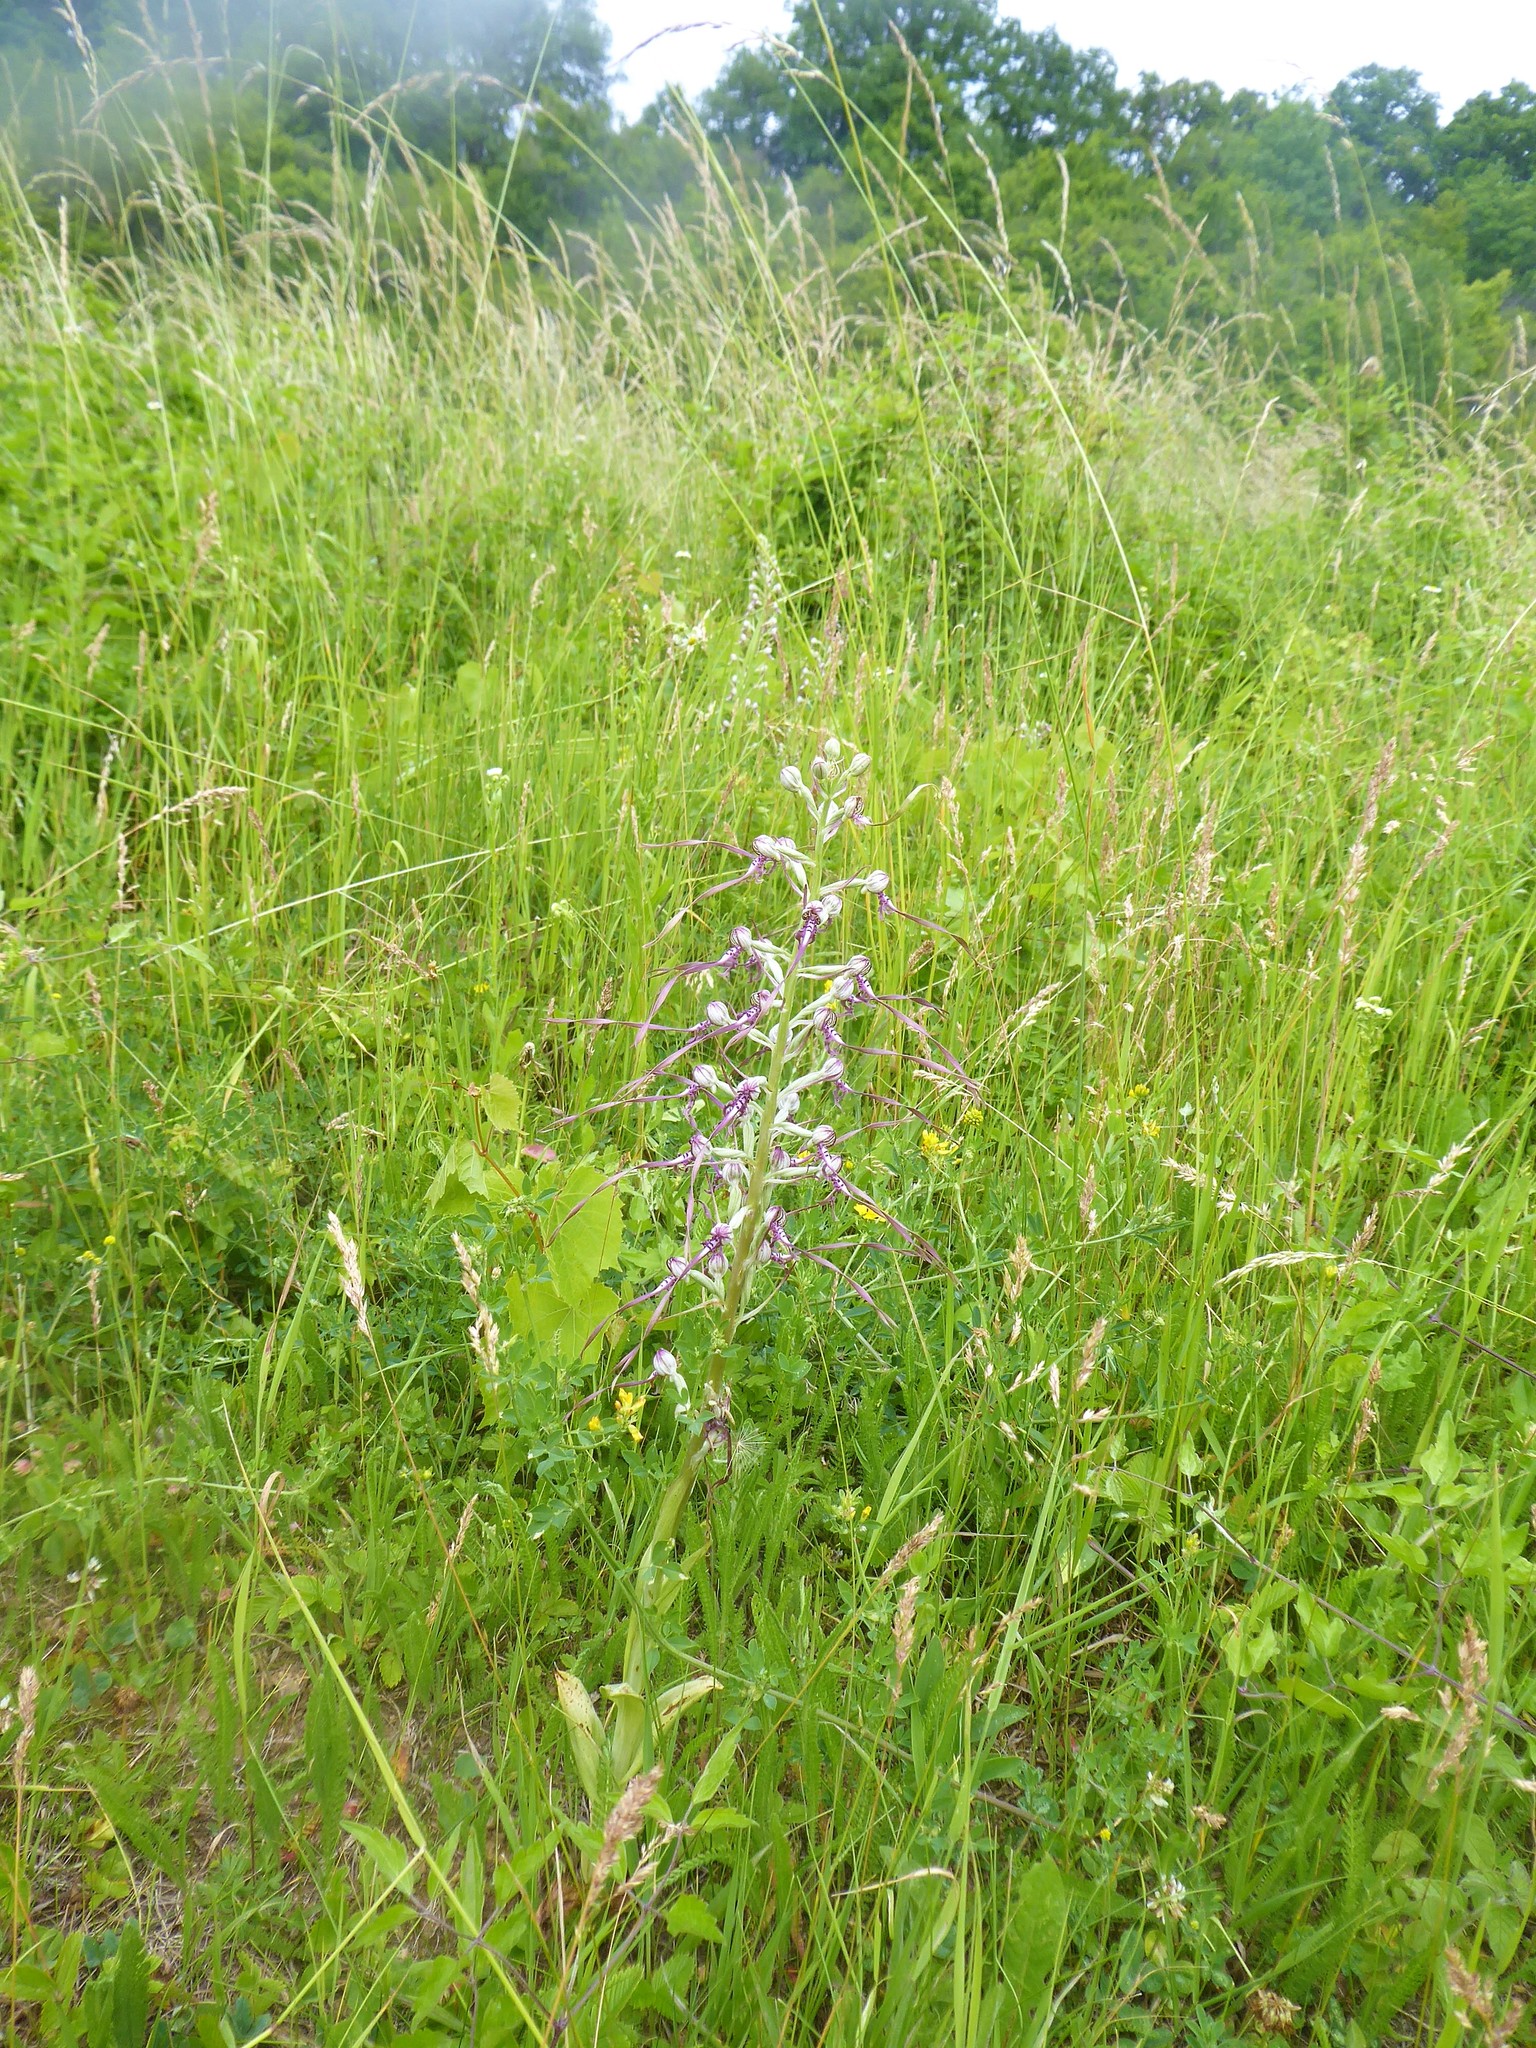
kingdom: Plantae
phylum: Tracheophyta
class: Liliopsida
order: Asparagales
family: Orchidaceae
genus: Himantoglossum
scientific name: Himantoglossum adriaticum
